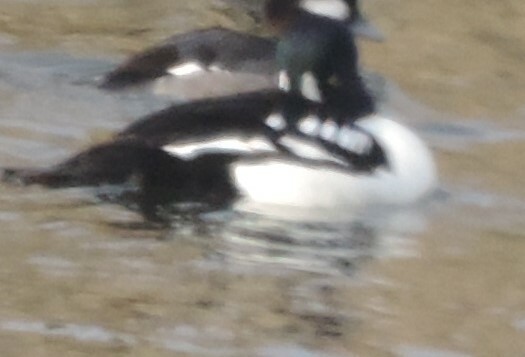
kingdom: Animalia
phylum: Chordata
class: Aves
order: Anseriformes
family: Anatidae
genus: Bucephala
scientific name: Bucephala islandica
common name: Barrow's goldeneye
